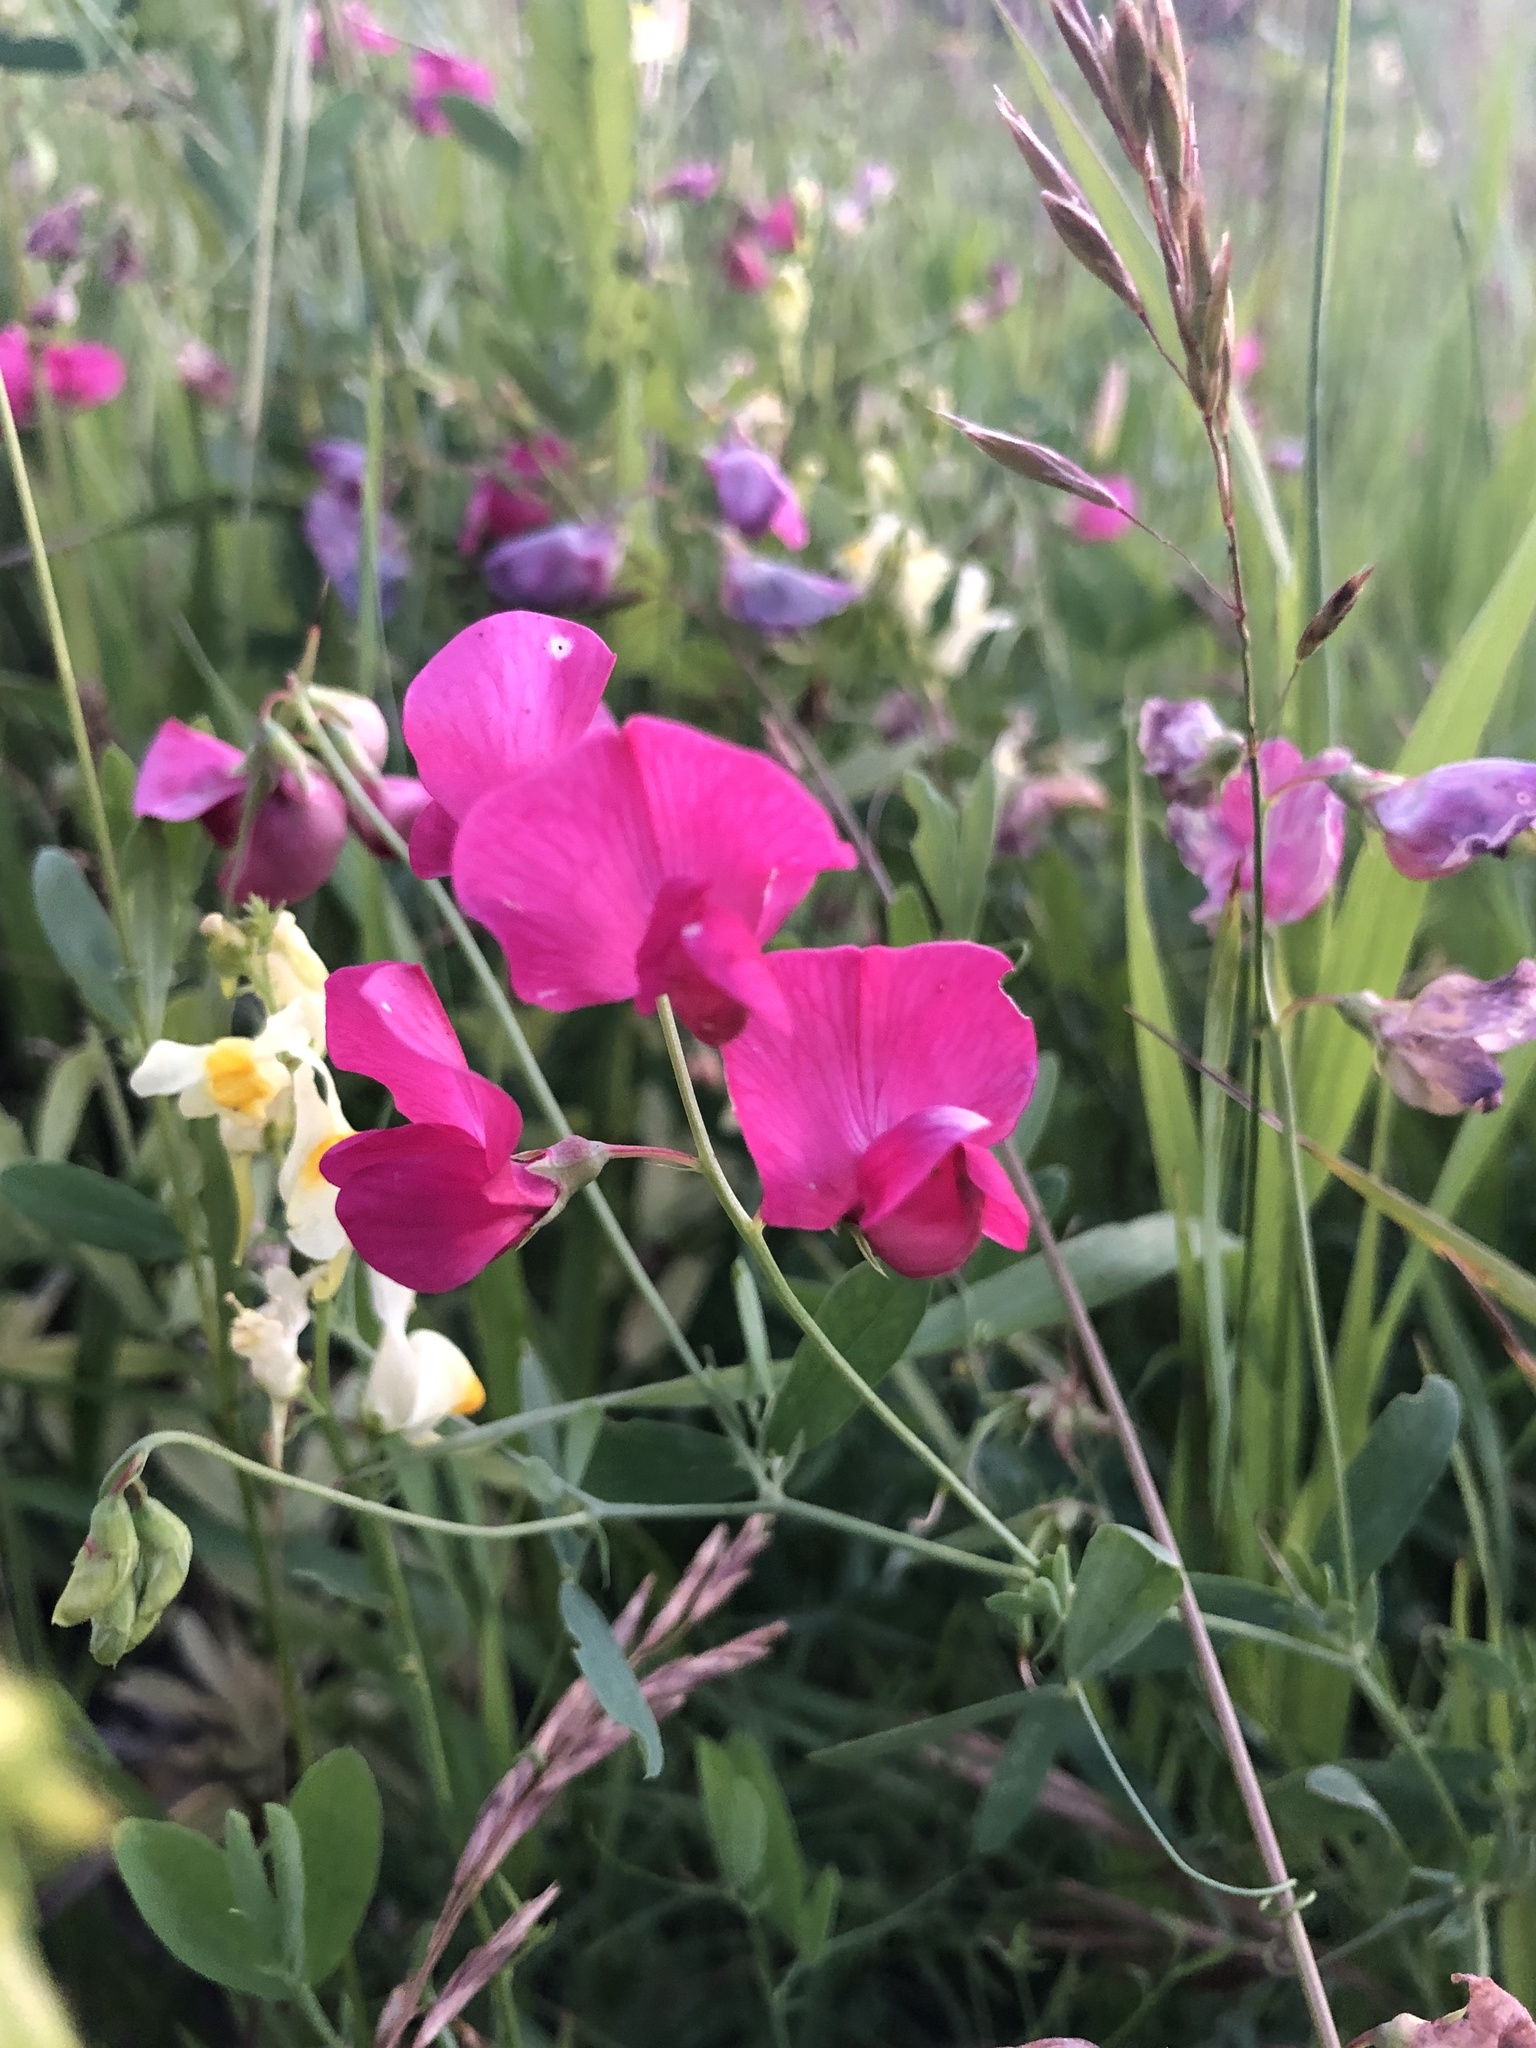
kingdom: Plantae
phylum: Tracheophyta
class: Magnoliopsida
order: Fabales
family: Fabaceae
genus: Lathyrus
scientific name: Lathyrus tuberosus
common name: Tuberous pea
